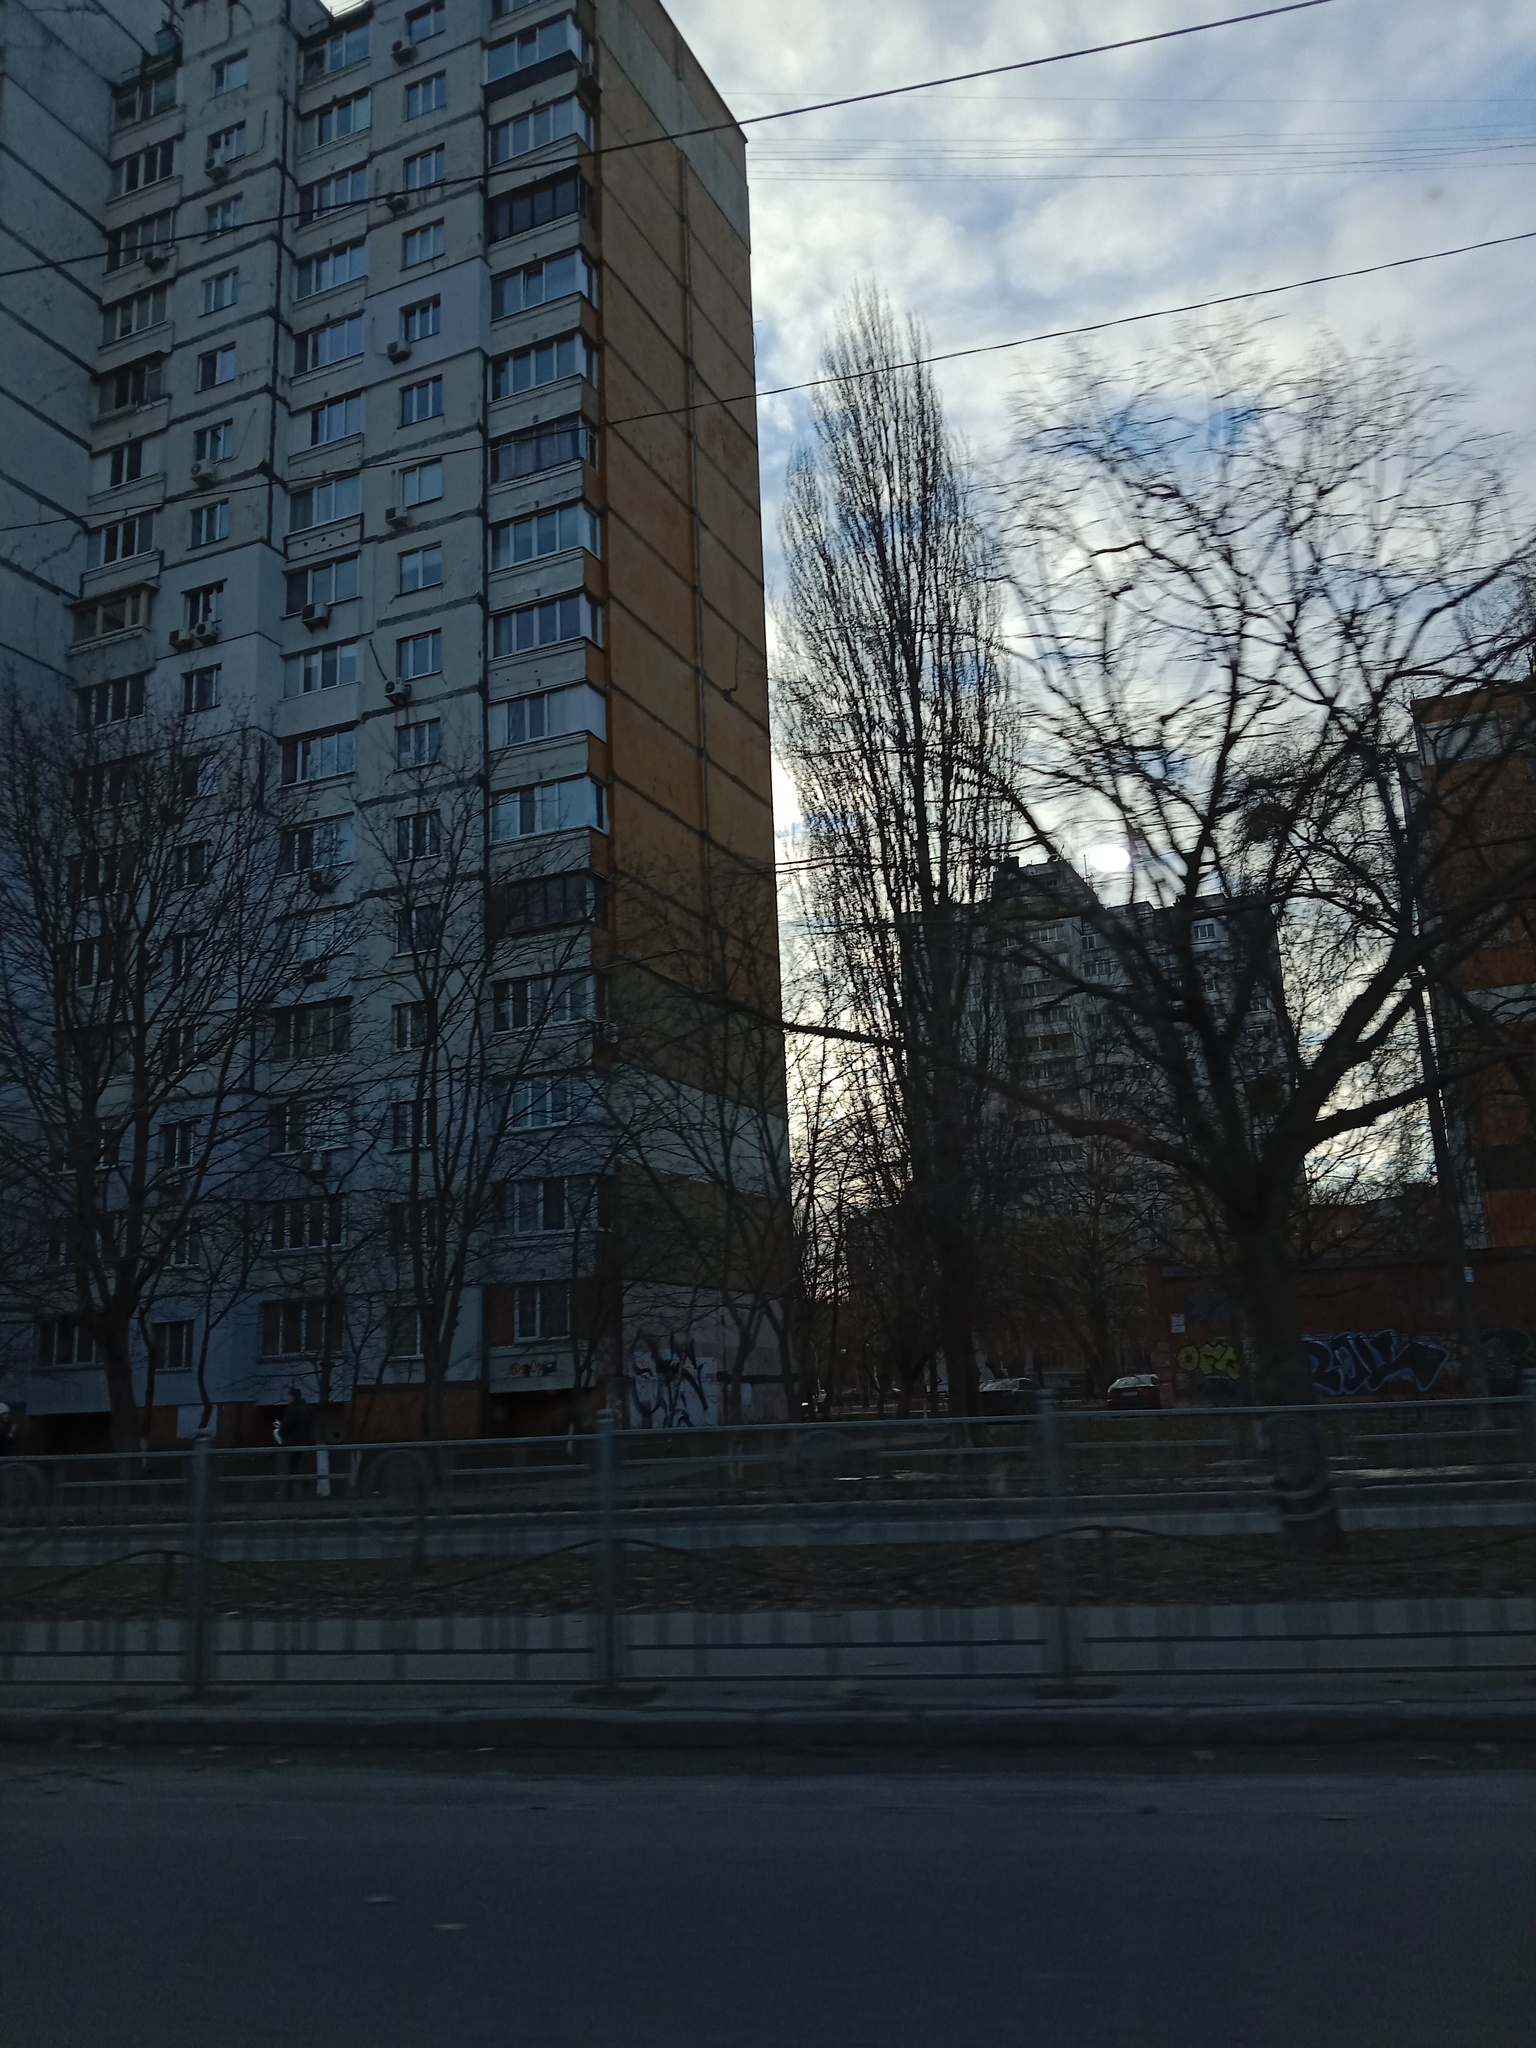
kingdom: Plantae
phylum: Tracheophyta
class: Magnoliopsida
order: Santalales
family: Viscaceae
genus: Viscum
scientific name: Viscum album
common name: Mistletoe
